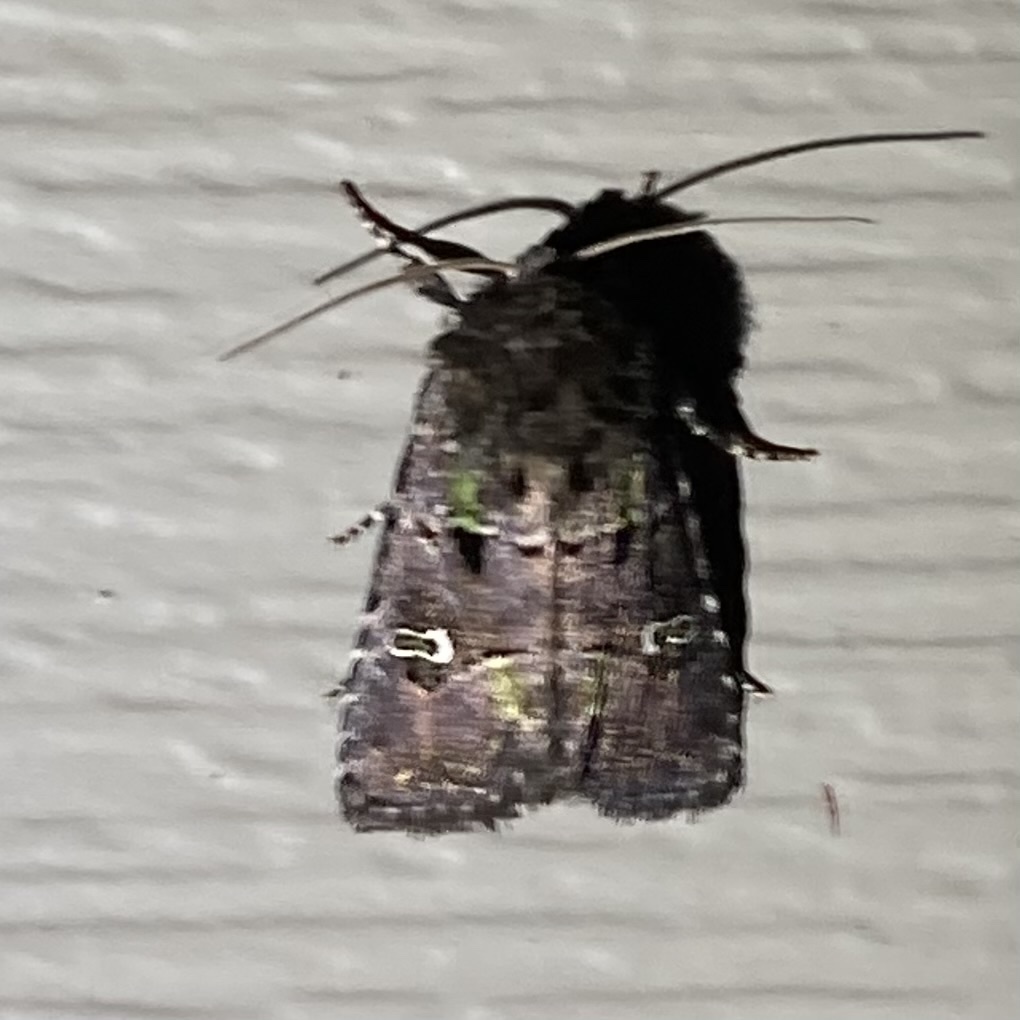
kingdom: Animalia
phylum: Arthropoda
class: Insecta
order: Lepidoptera
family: Noctuidae
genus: Lacinipolia
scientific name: Lacinipolia renigera
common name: Kidney-spotted minor
